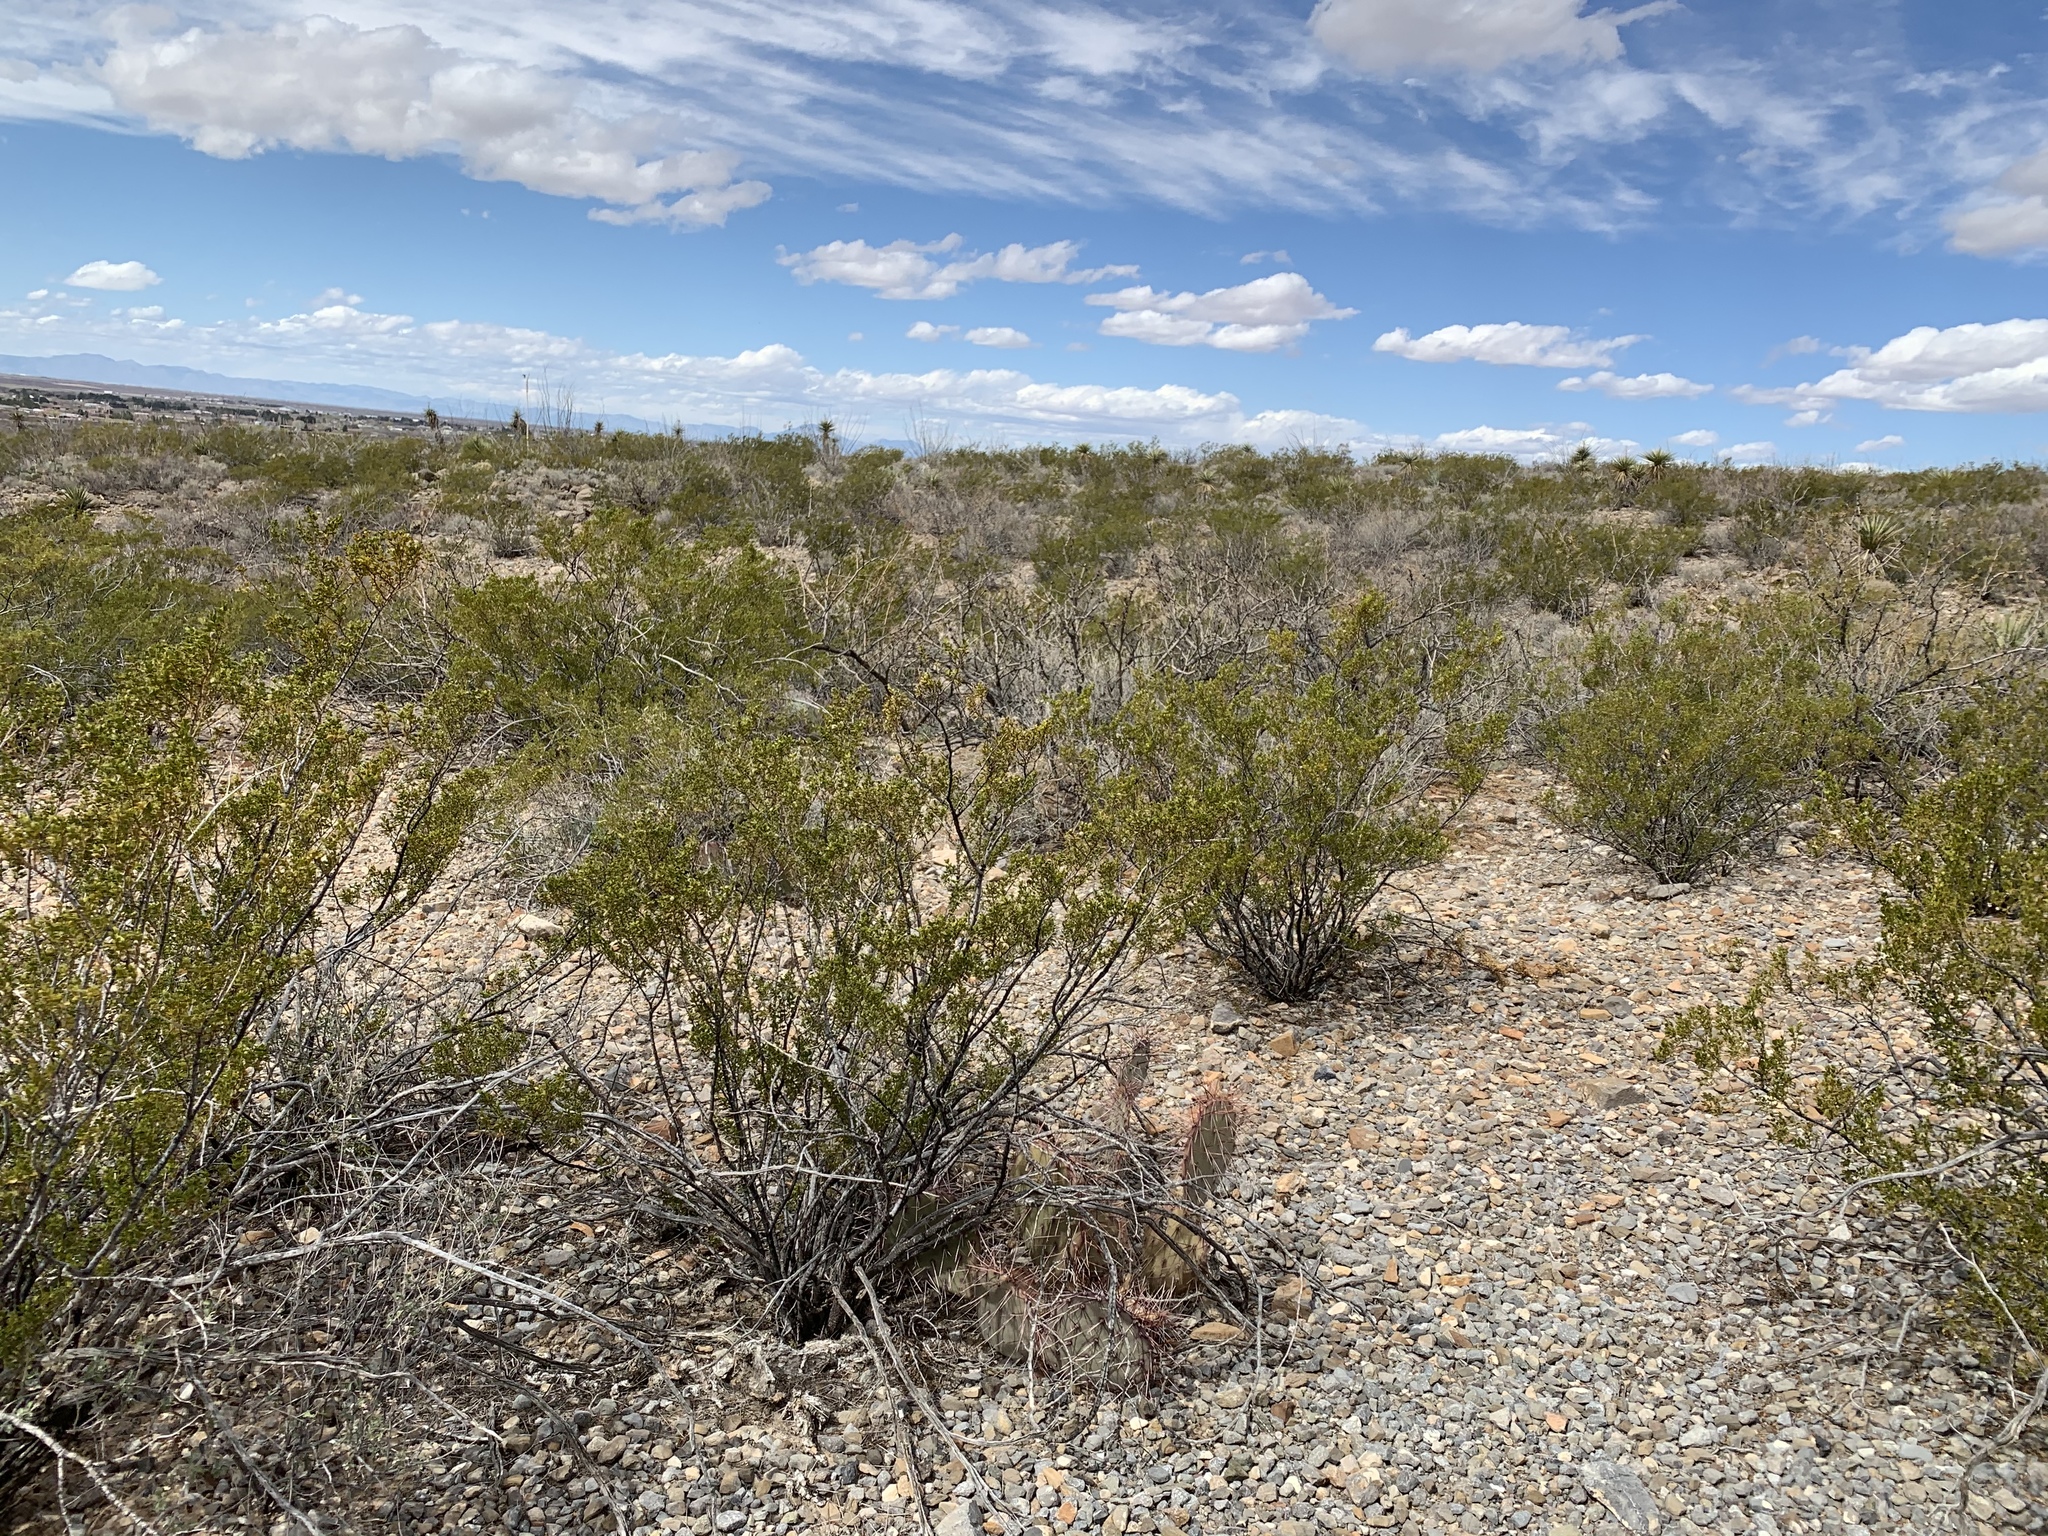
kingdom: Plantae
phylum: Tracheophyta
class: Magnoliopsida
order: Zygophyllales
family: Zygophyllaceae
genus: Larrea
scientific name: Larrea tridentata
